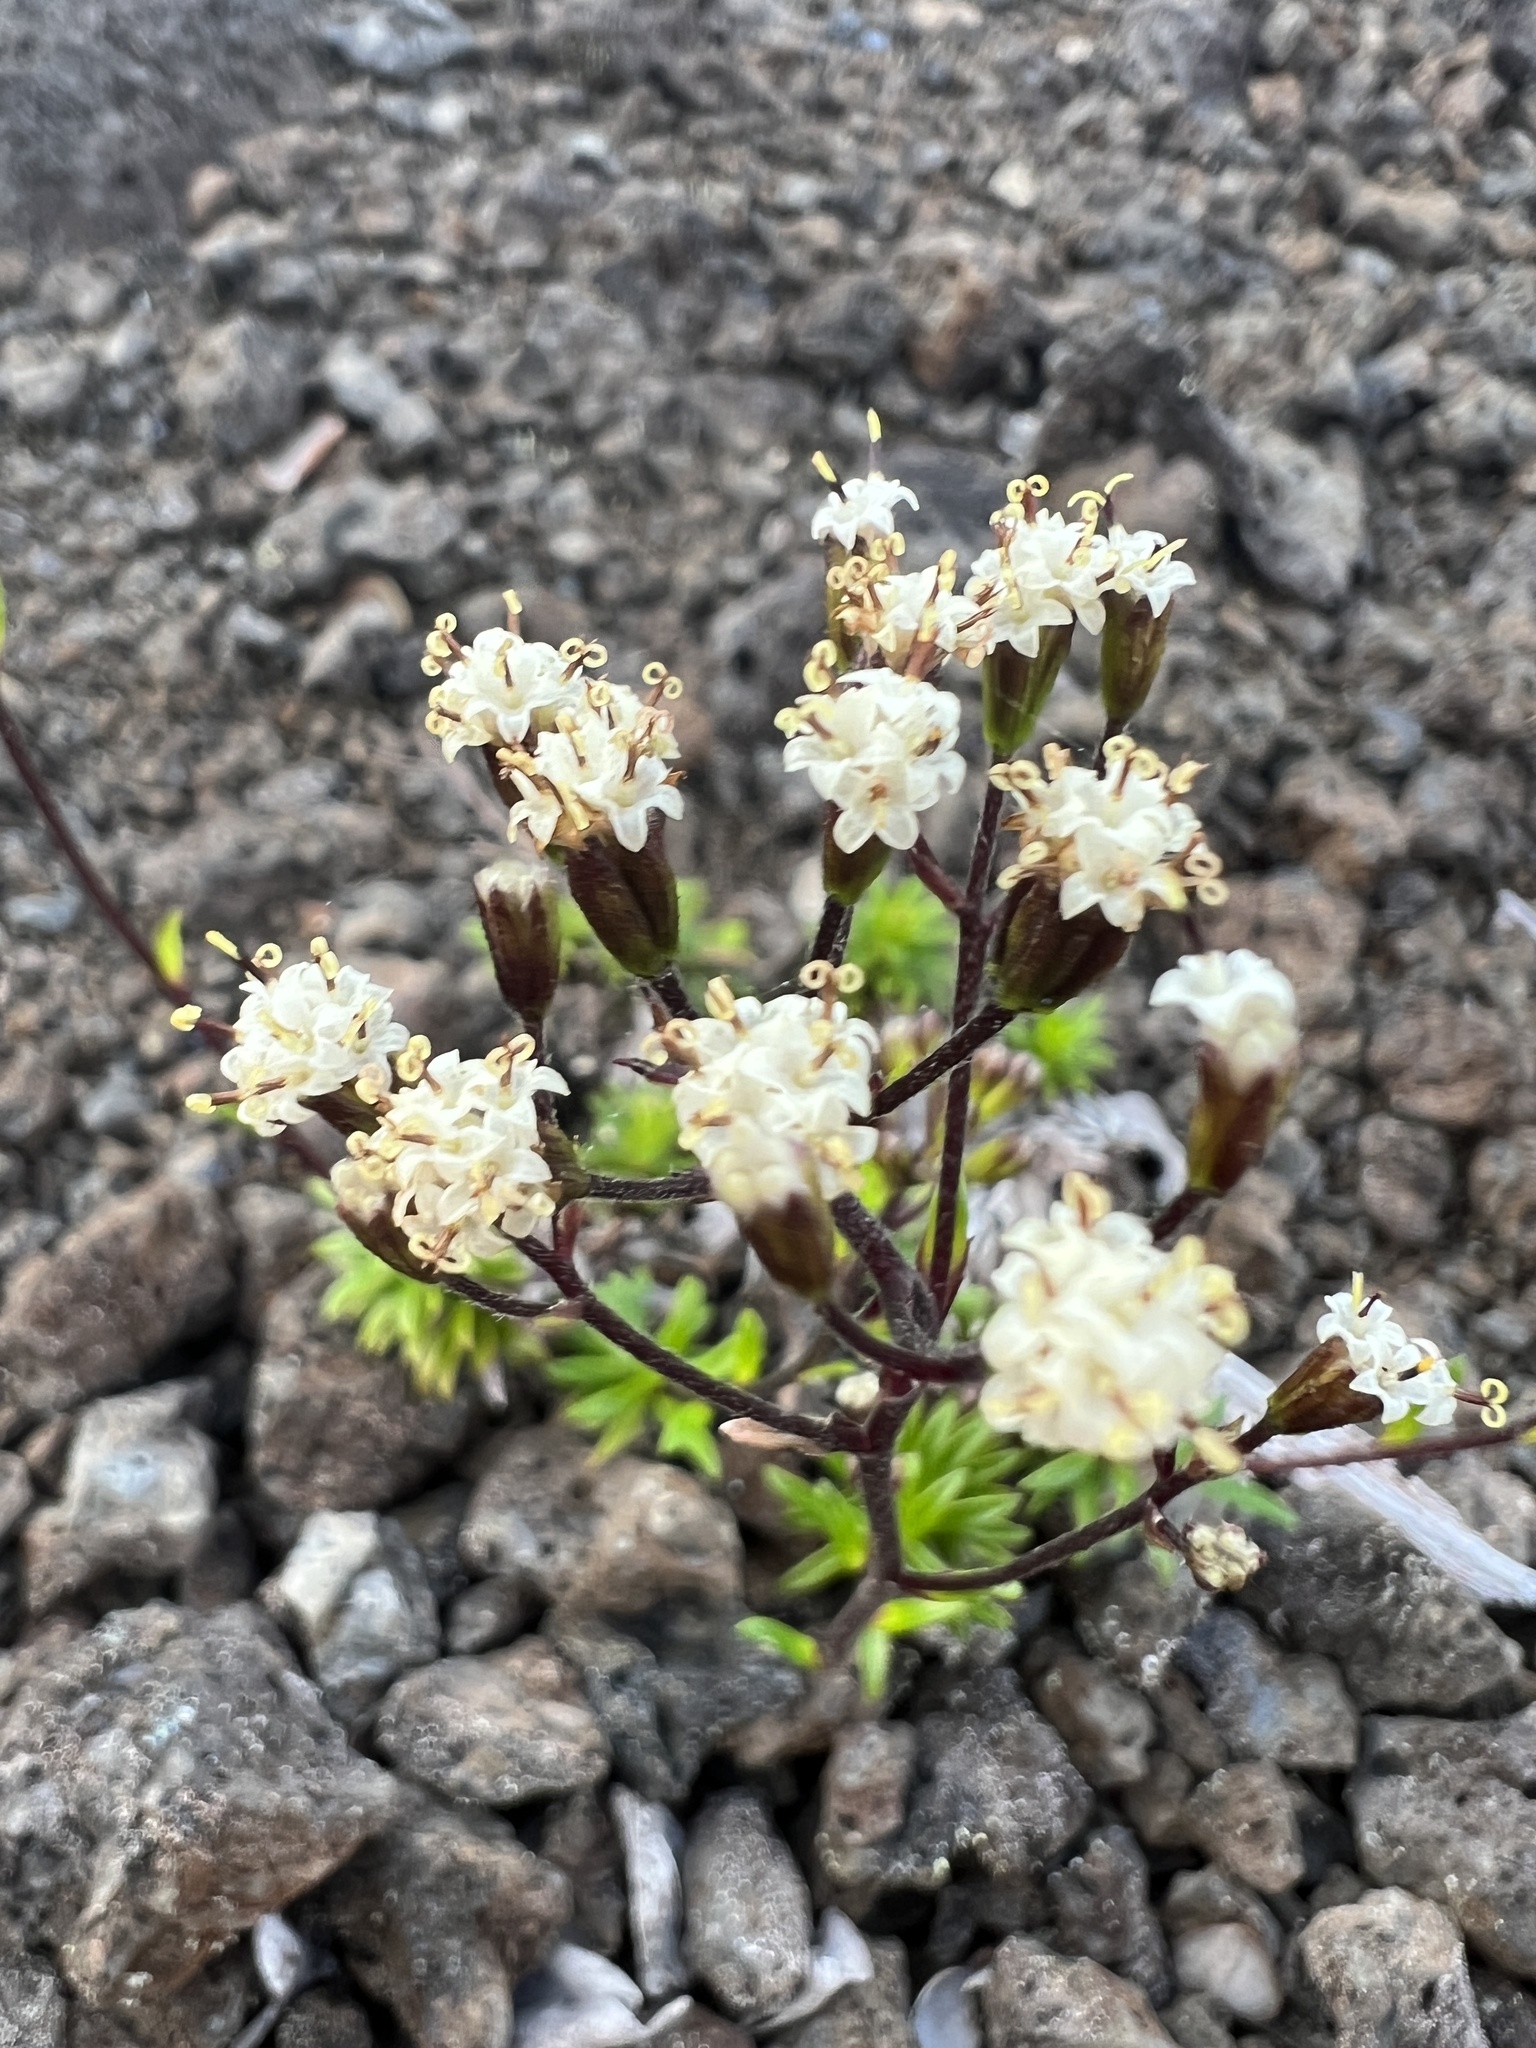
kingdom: Plantae
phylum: Tracheophyta
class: Magnoliopsida
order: Asterales
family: Asteraceae
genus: Dubautia
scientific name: Dubautia scabra
